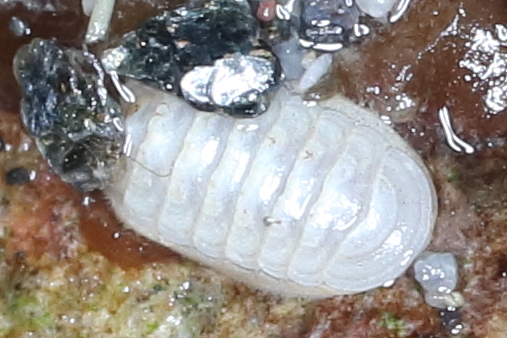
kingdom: Animalia
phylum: Mollusca
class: Polyplacophora
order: Lepidopleurida
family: Leptochitonidae
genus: Leptochiton
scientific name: Leptochiton cascadiensis
